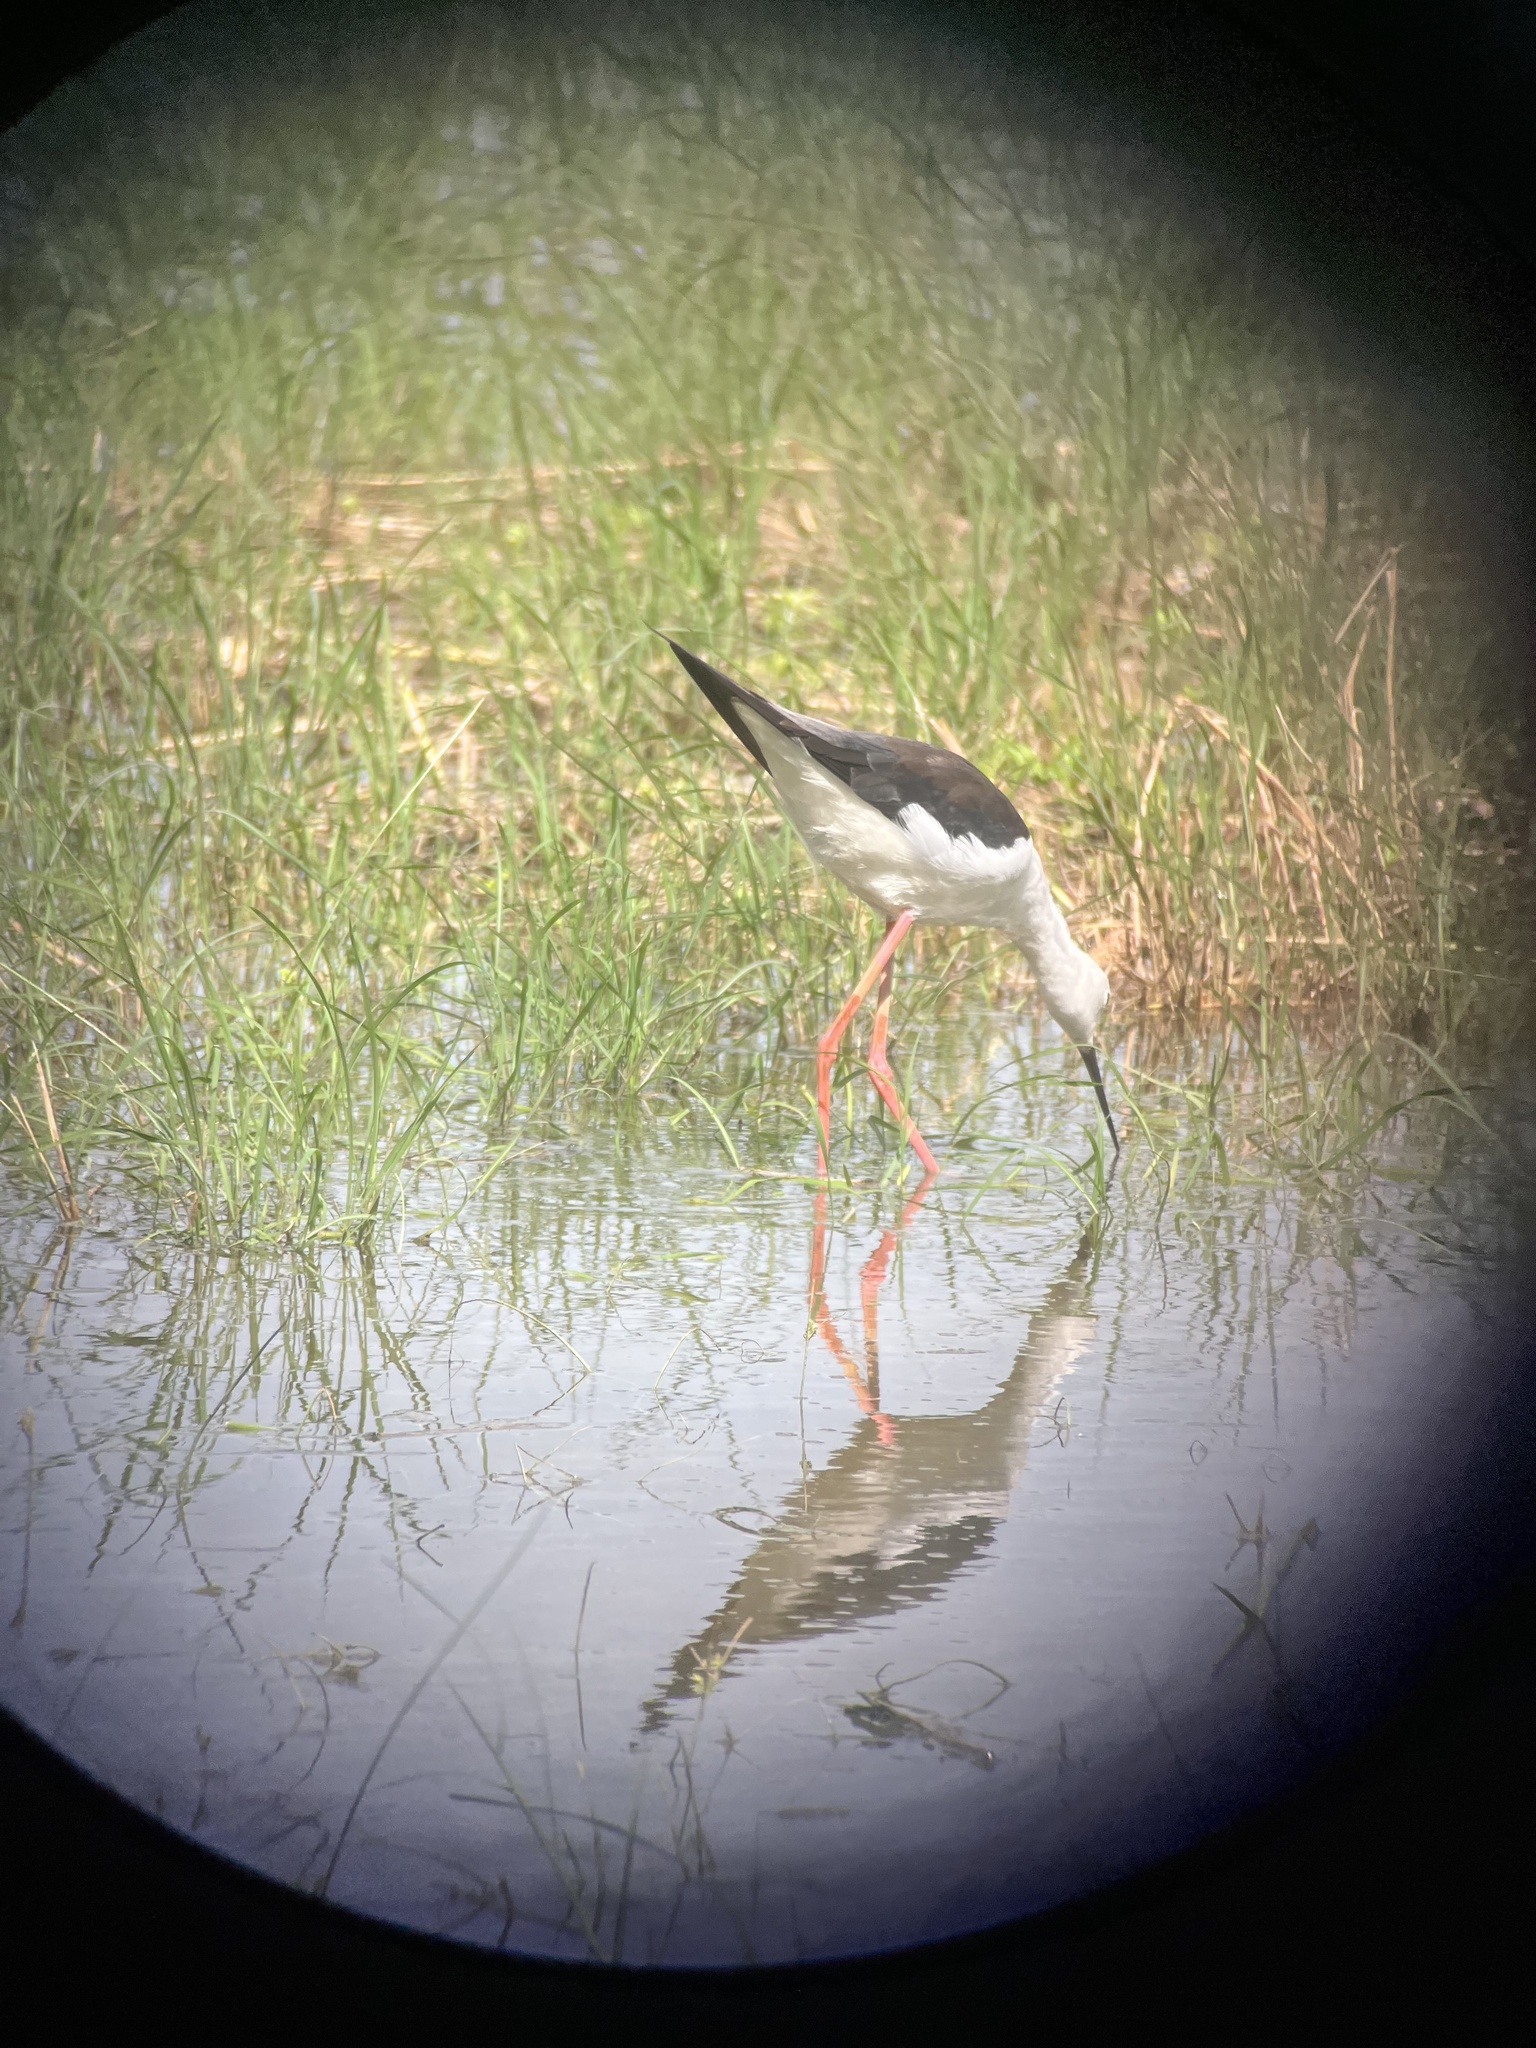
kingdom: Animalia
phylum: Chordata
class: Aves
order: Charadriiformes
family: Recurvirostridae
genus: Himantopus
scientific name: Himantopus himantopus
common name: Black-winged stilt
